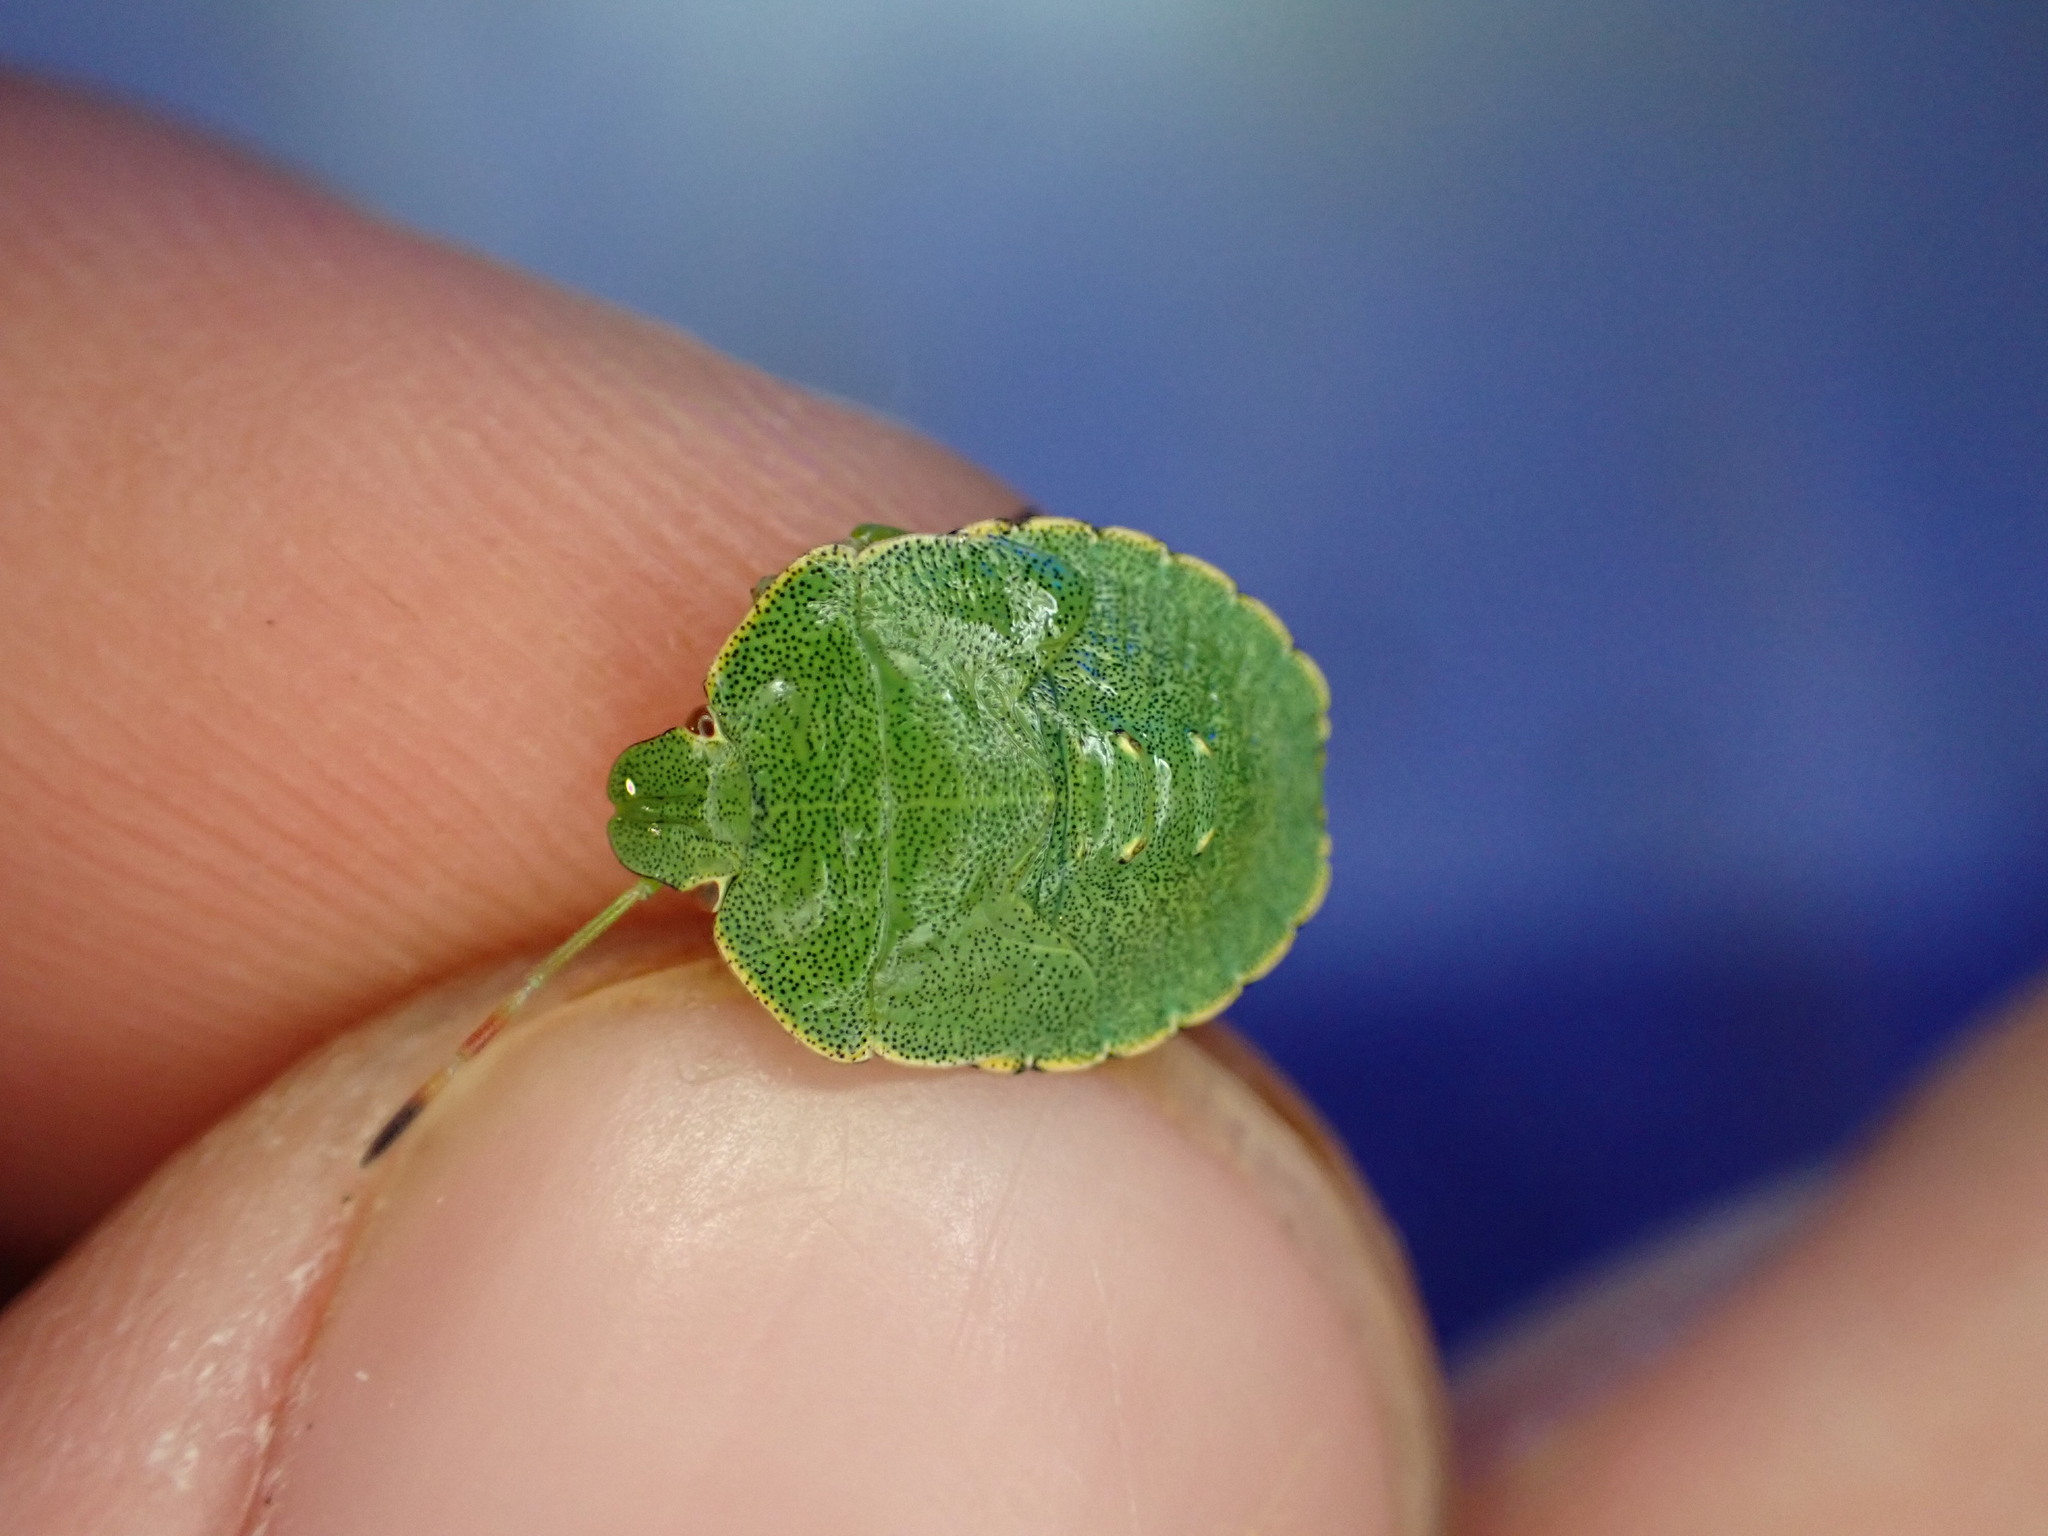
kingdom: Animalia
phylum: Arthropoda
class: Insecta
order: Hemiptera
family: Pentatomidae
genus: Palomena
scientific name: Palomena prasina
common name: Green shieldbug
